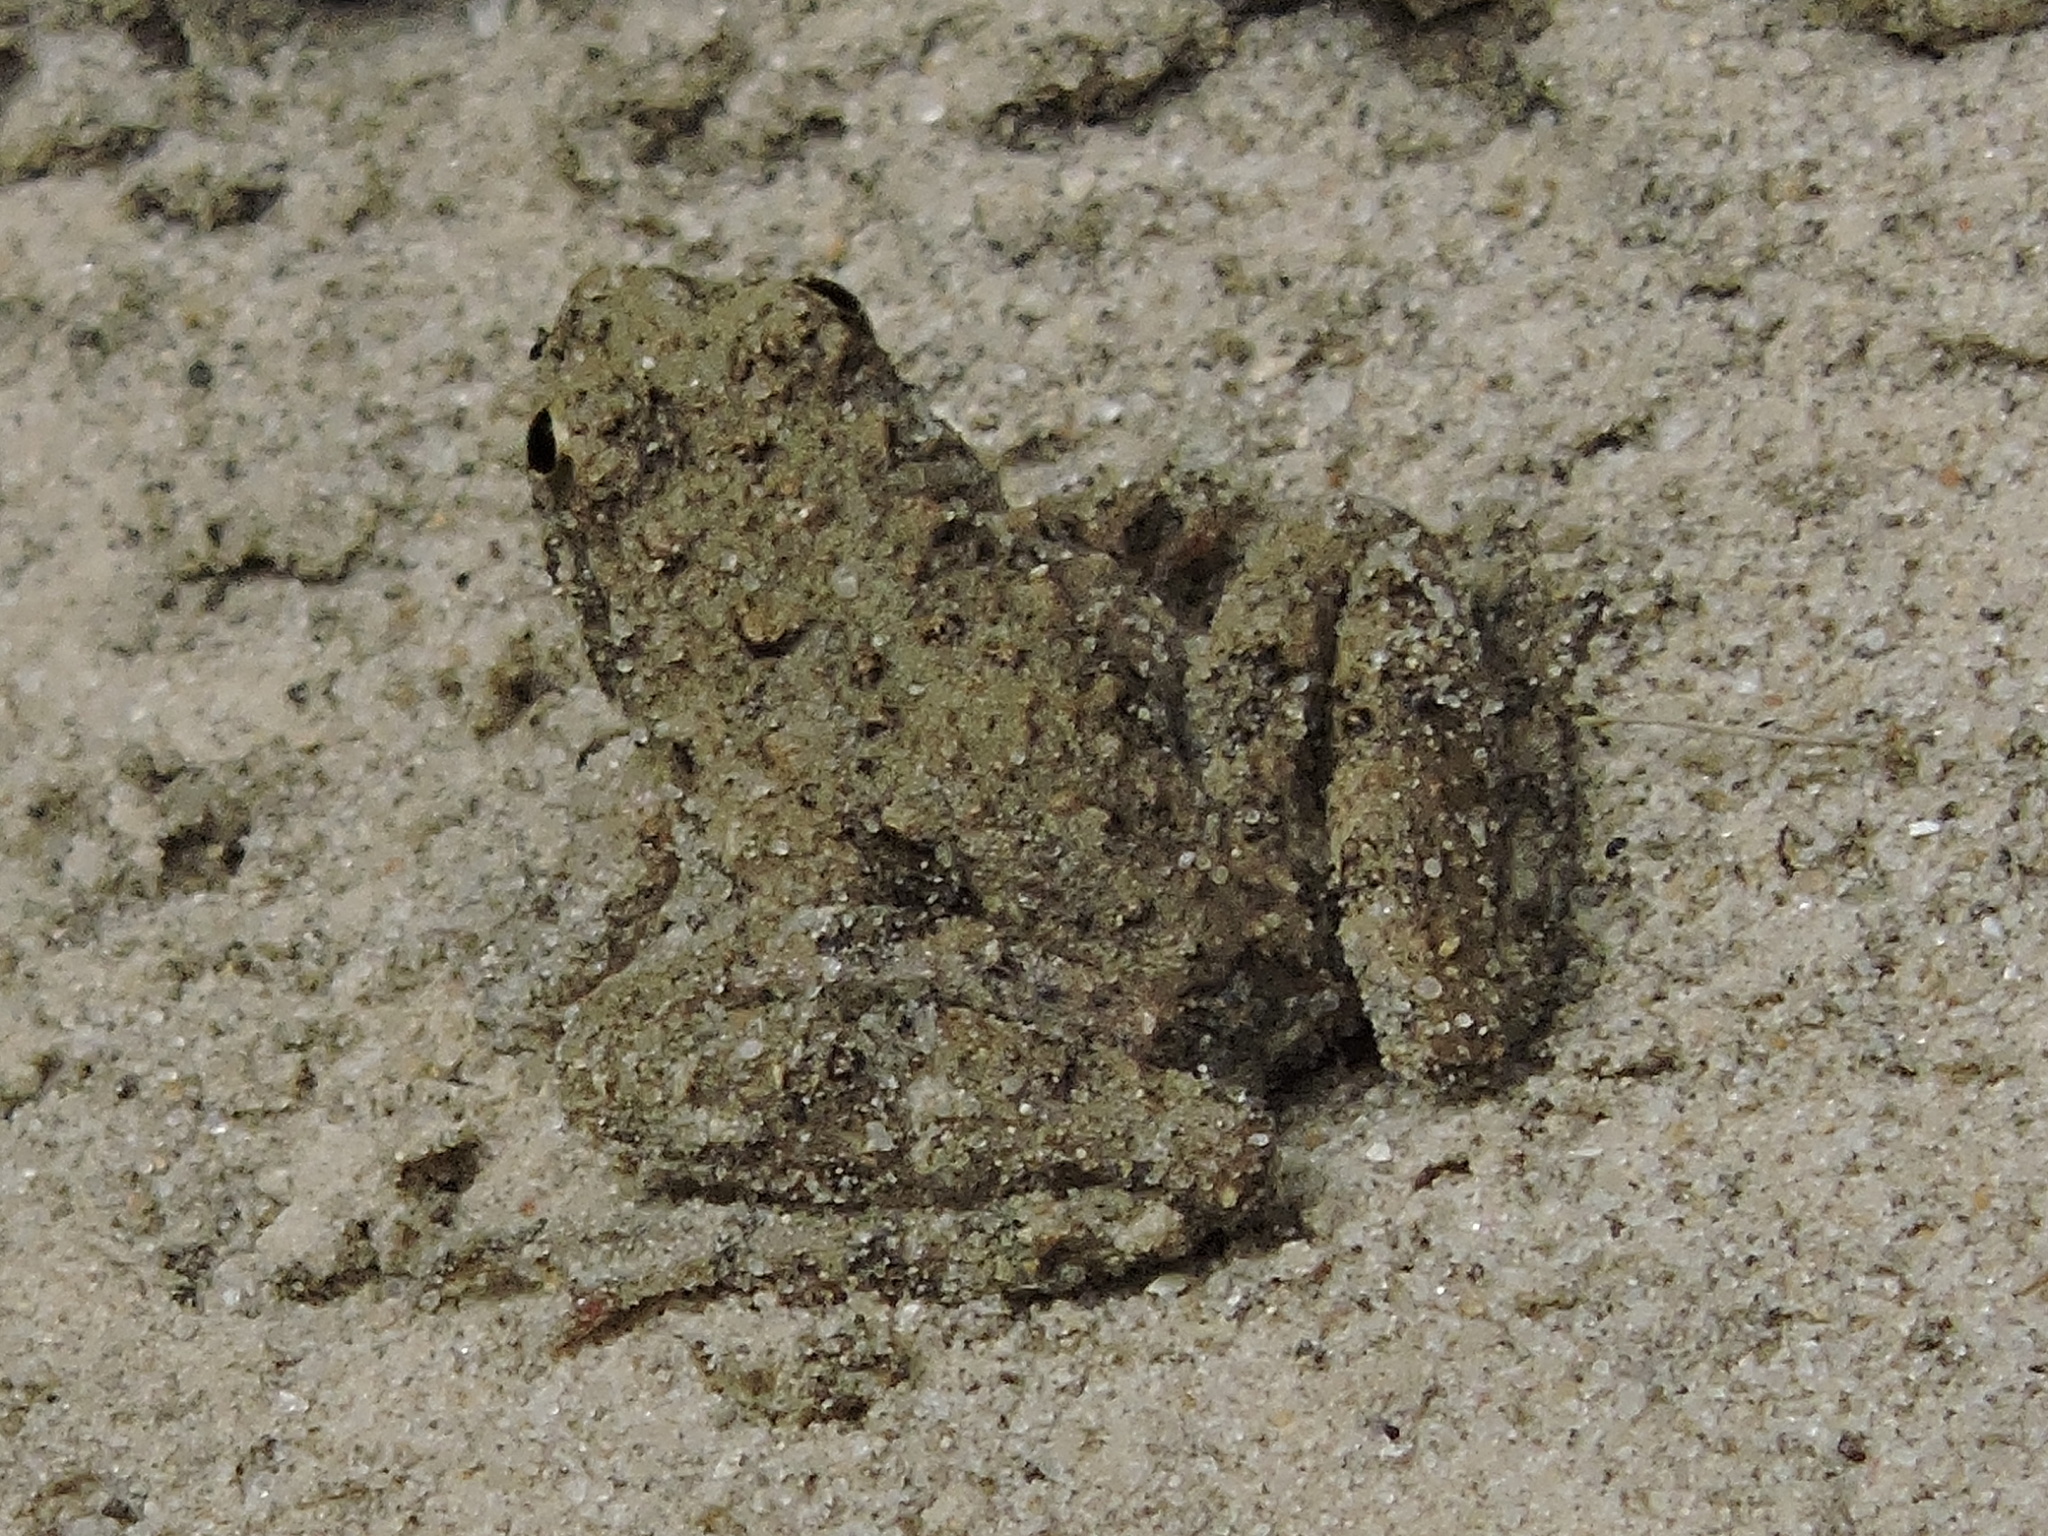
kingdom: Animalia
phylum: Chordata
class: Amphibia
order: Anura
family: Hylidae
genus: Acris
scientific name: Acris blanchardi
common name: Blanchard's cricket frog
